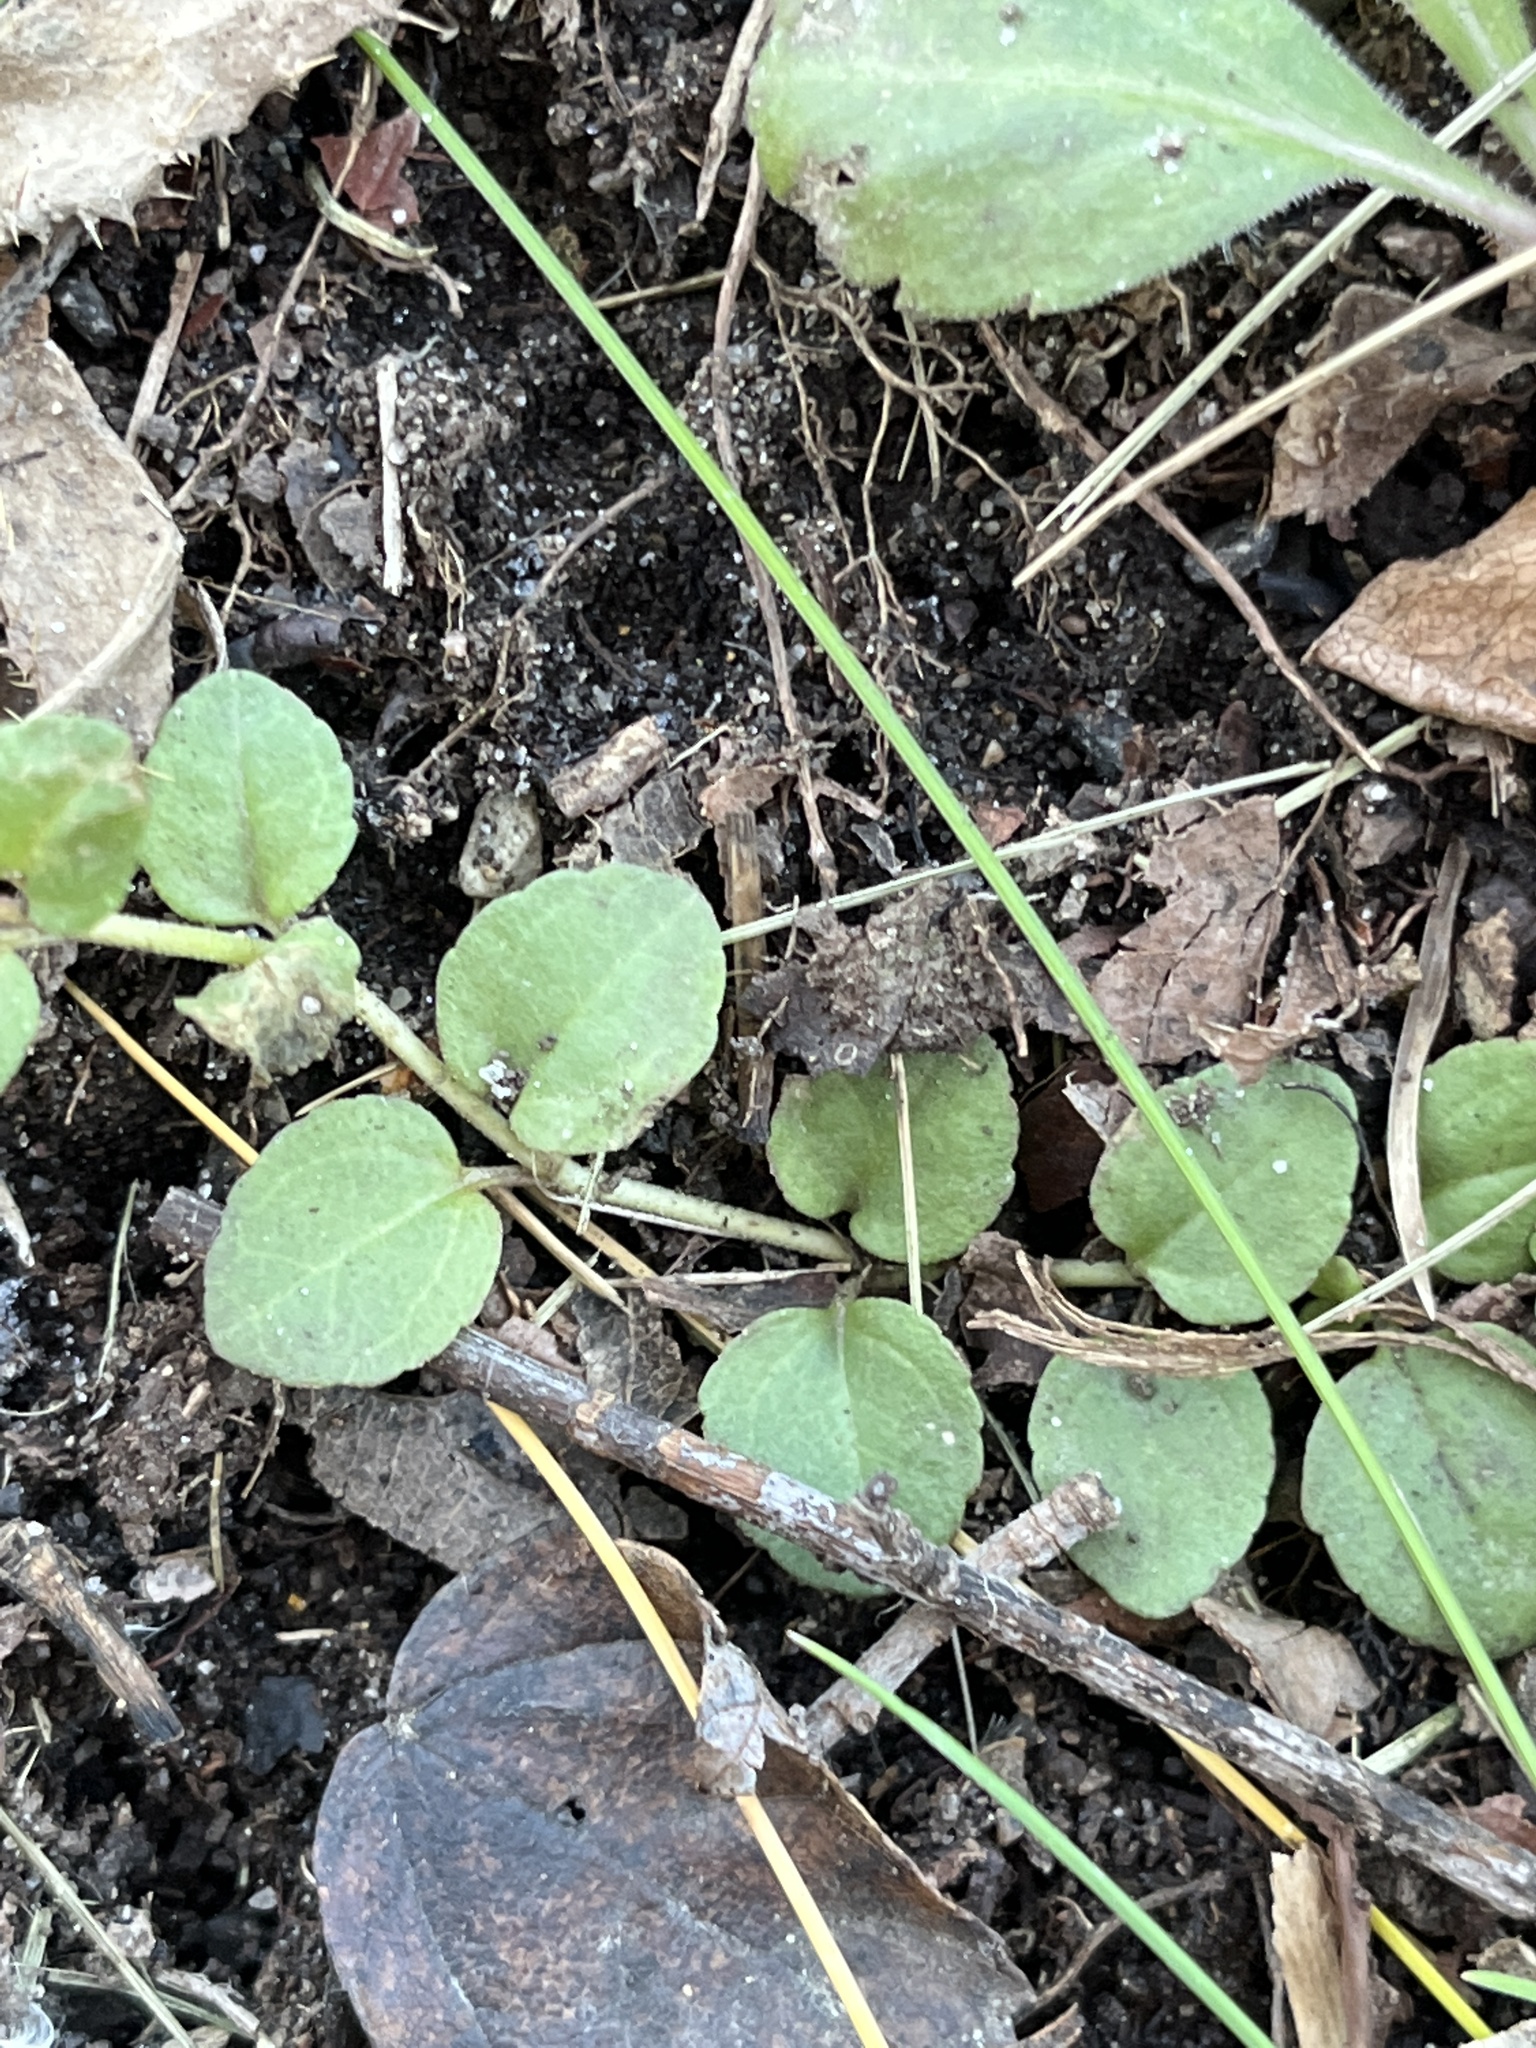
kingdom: Plantae
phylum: Tracheophyta
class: Magnoliopsida
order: Lamiales
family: Plantaginaceae
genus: Veronica
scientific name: Veronica officinalis
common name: Common speedwell
